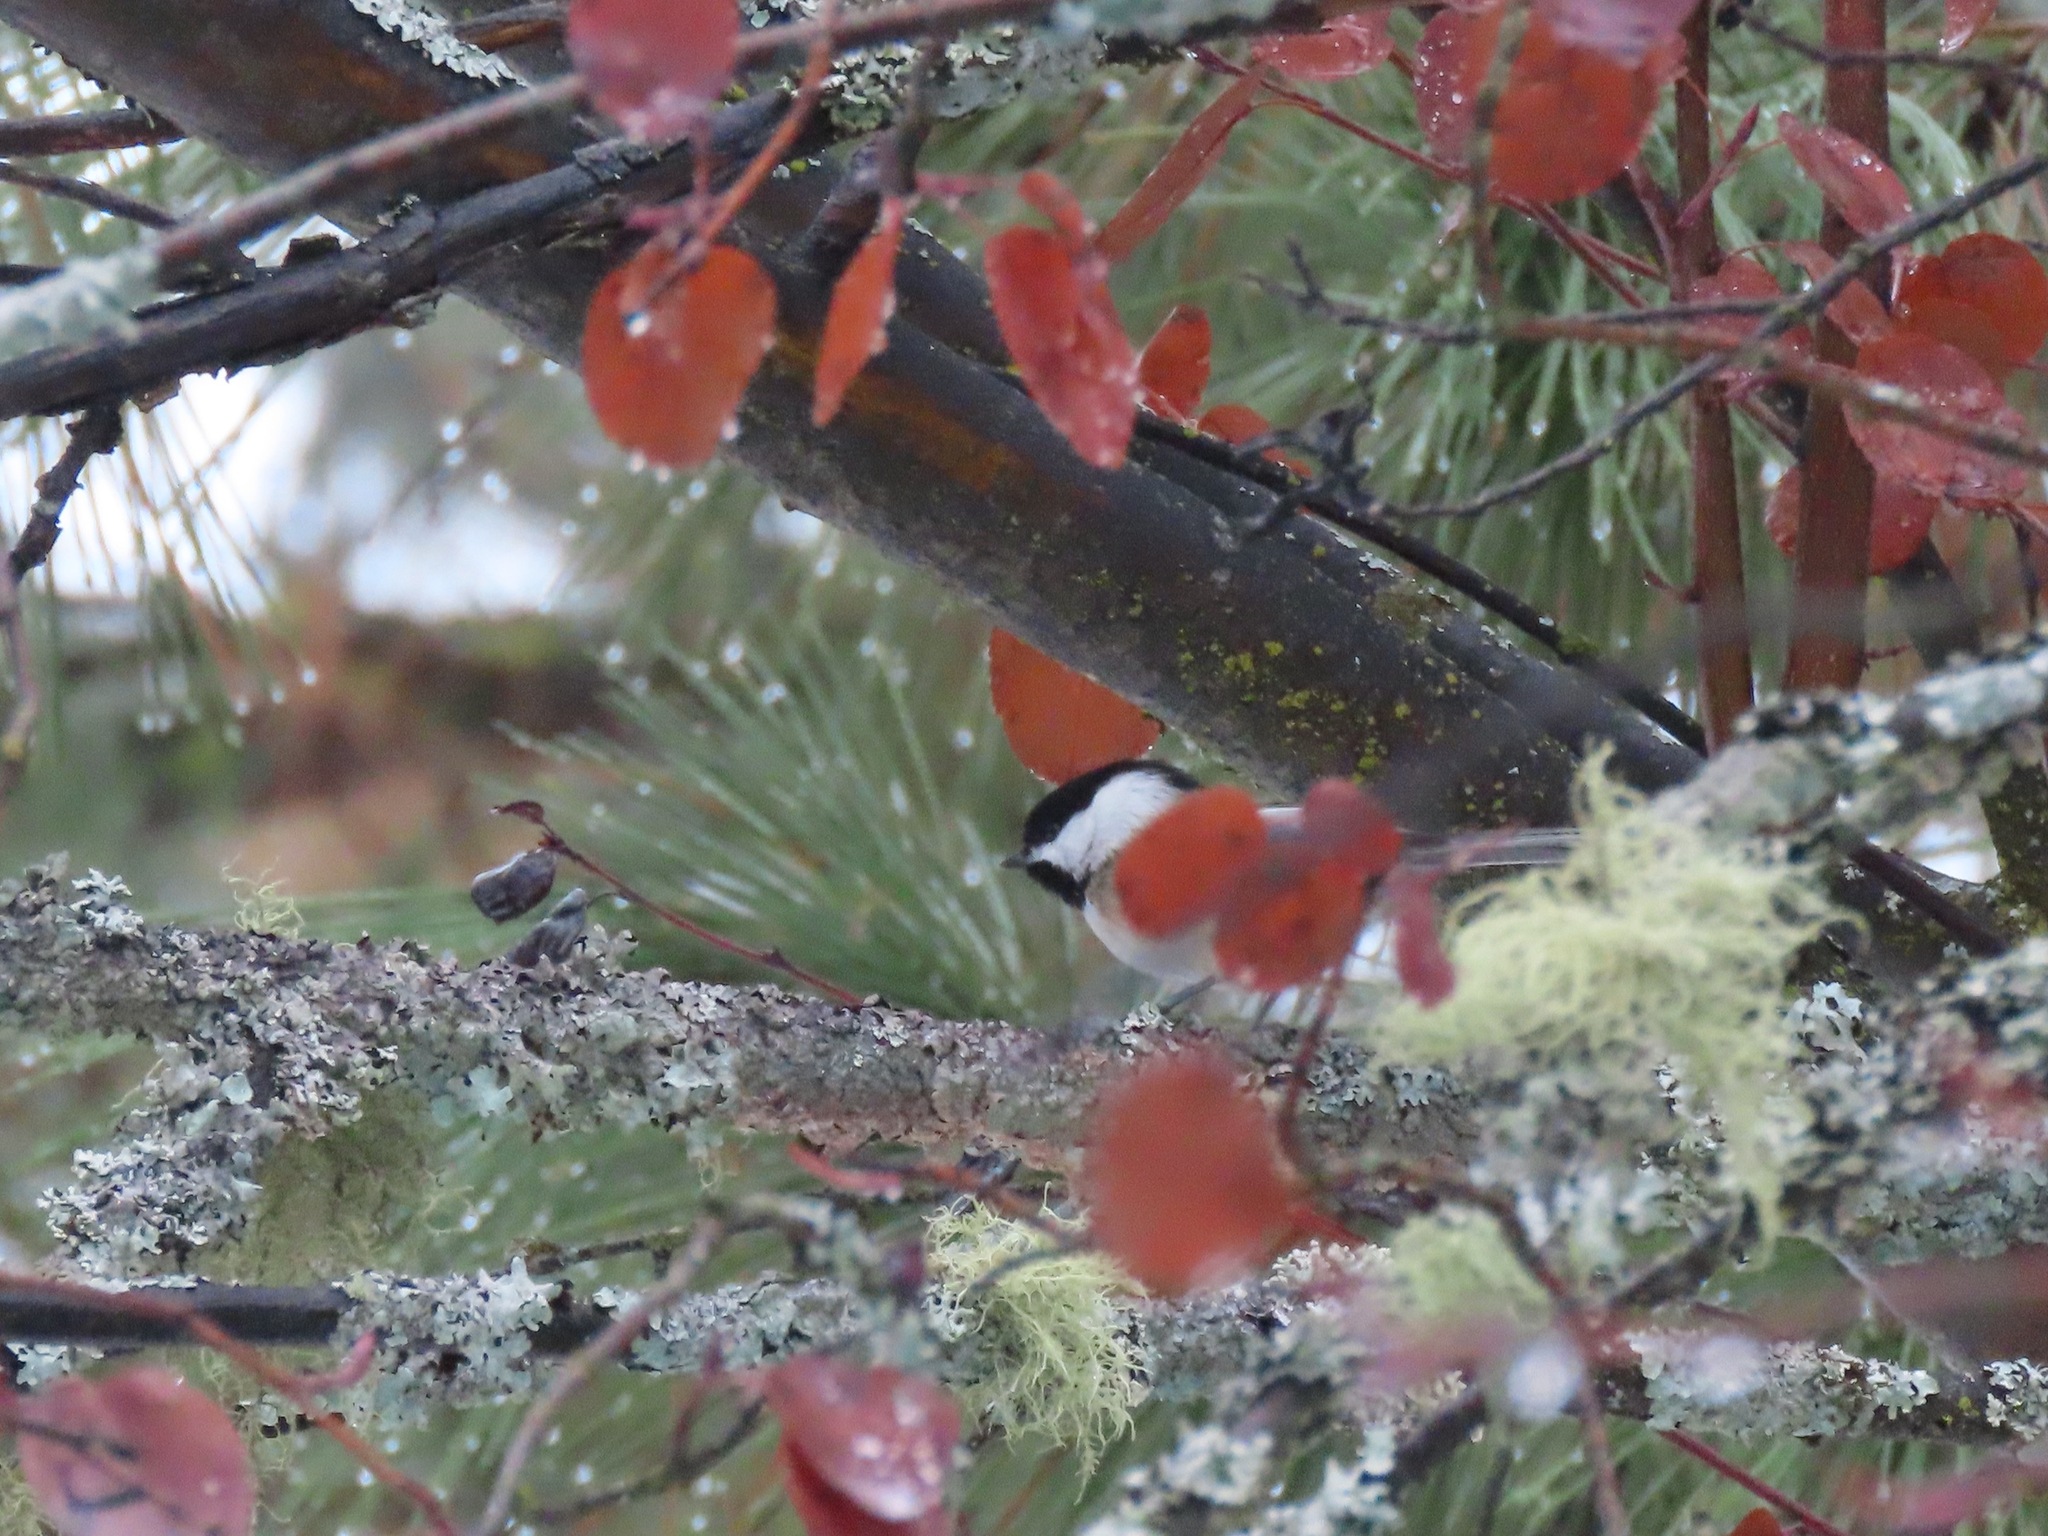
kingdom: Animalia
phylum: Chordata
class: Aves
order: Passeriformes
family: Paridae
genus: Poecile
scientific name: Poecile atricapillus
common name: Black-capped chickadee
